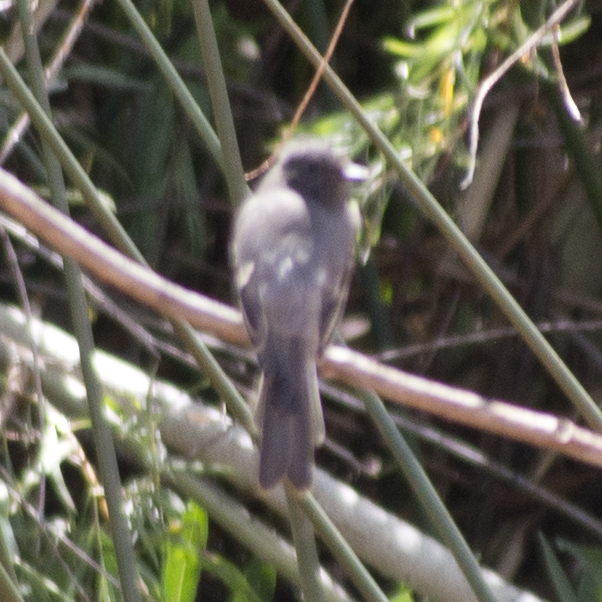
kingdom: Animalia
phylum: Chordata
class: Aves
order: Passeriformes
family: Tyrannidae
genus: Sayornis
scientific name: Sayornis nigricans
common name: Black phoebe
